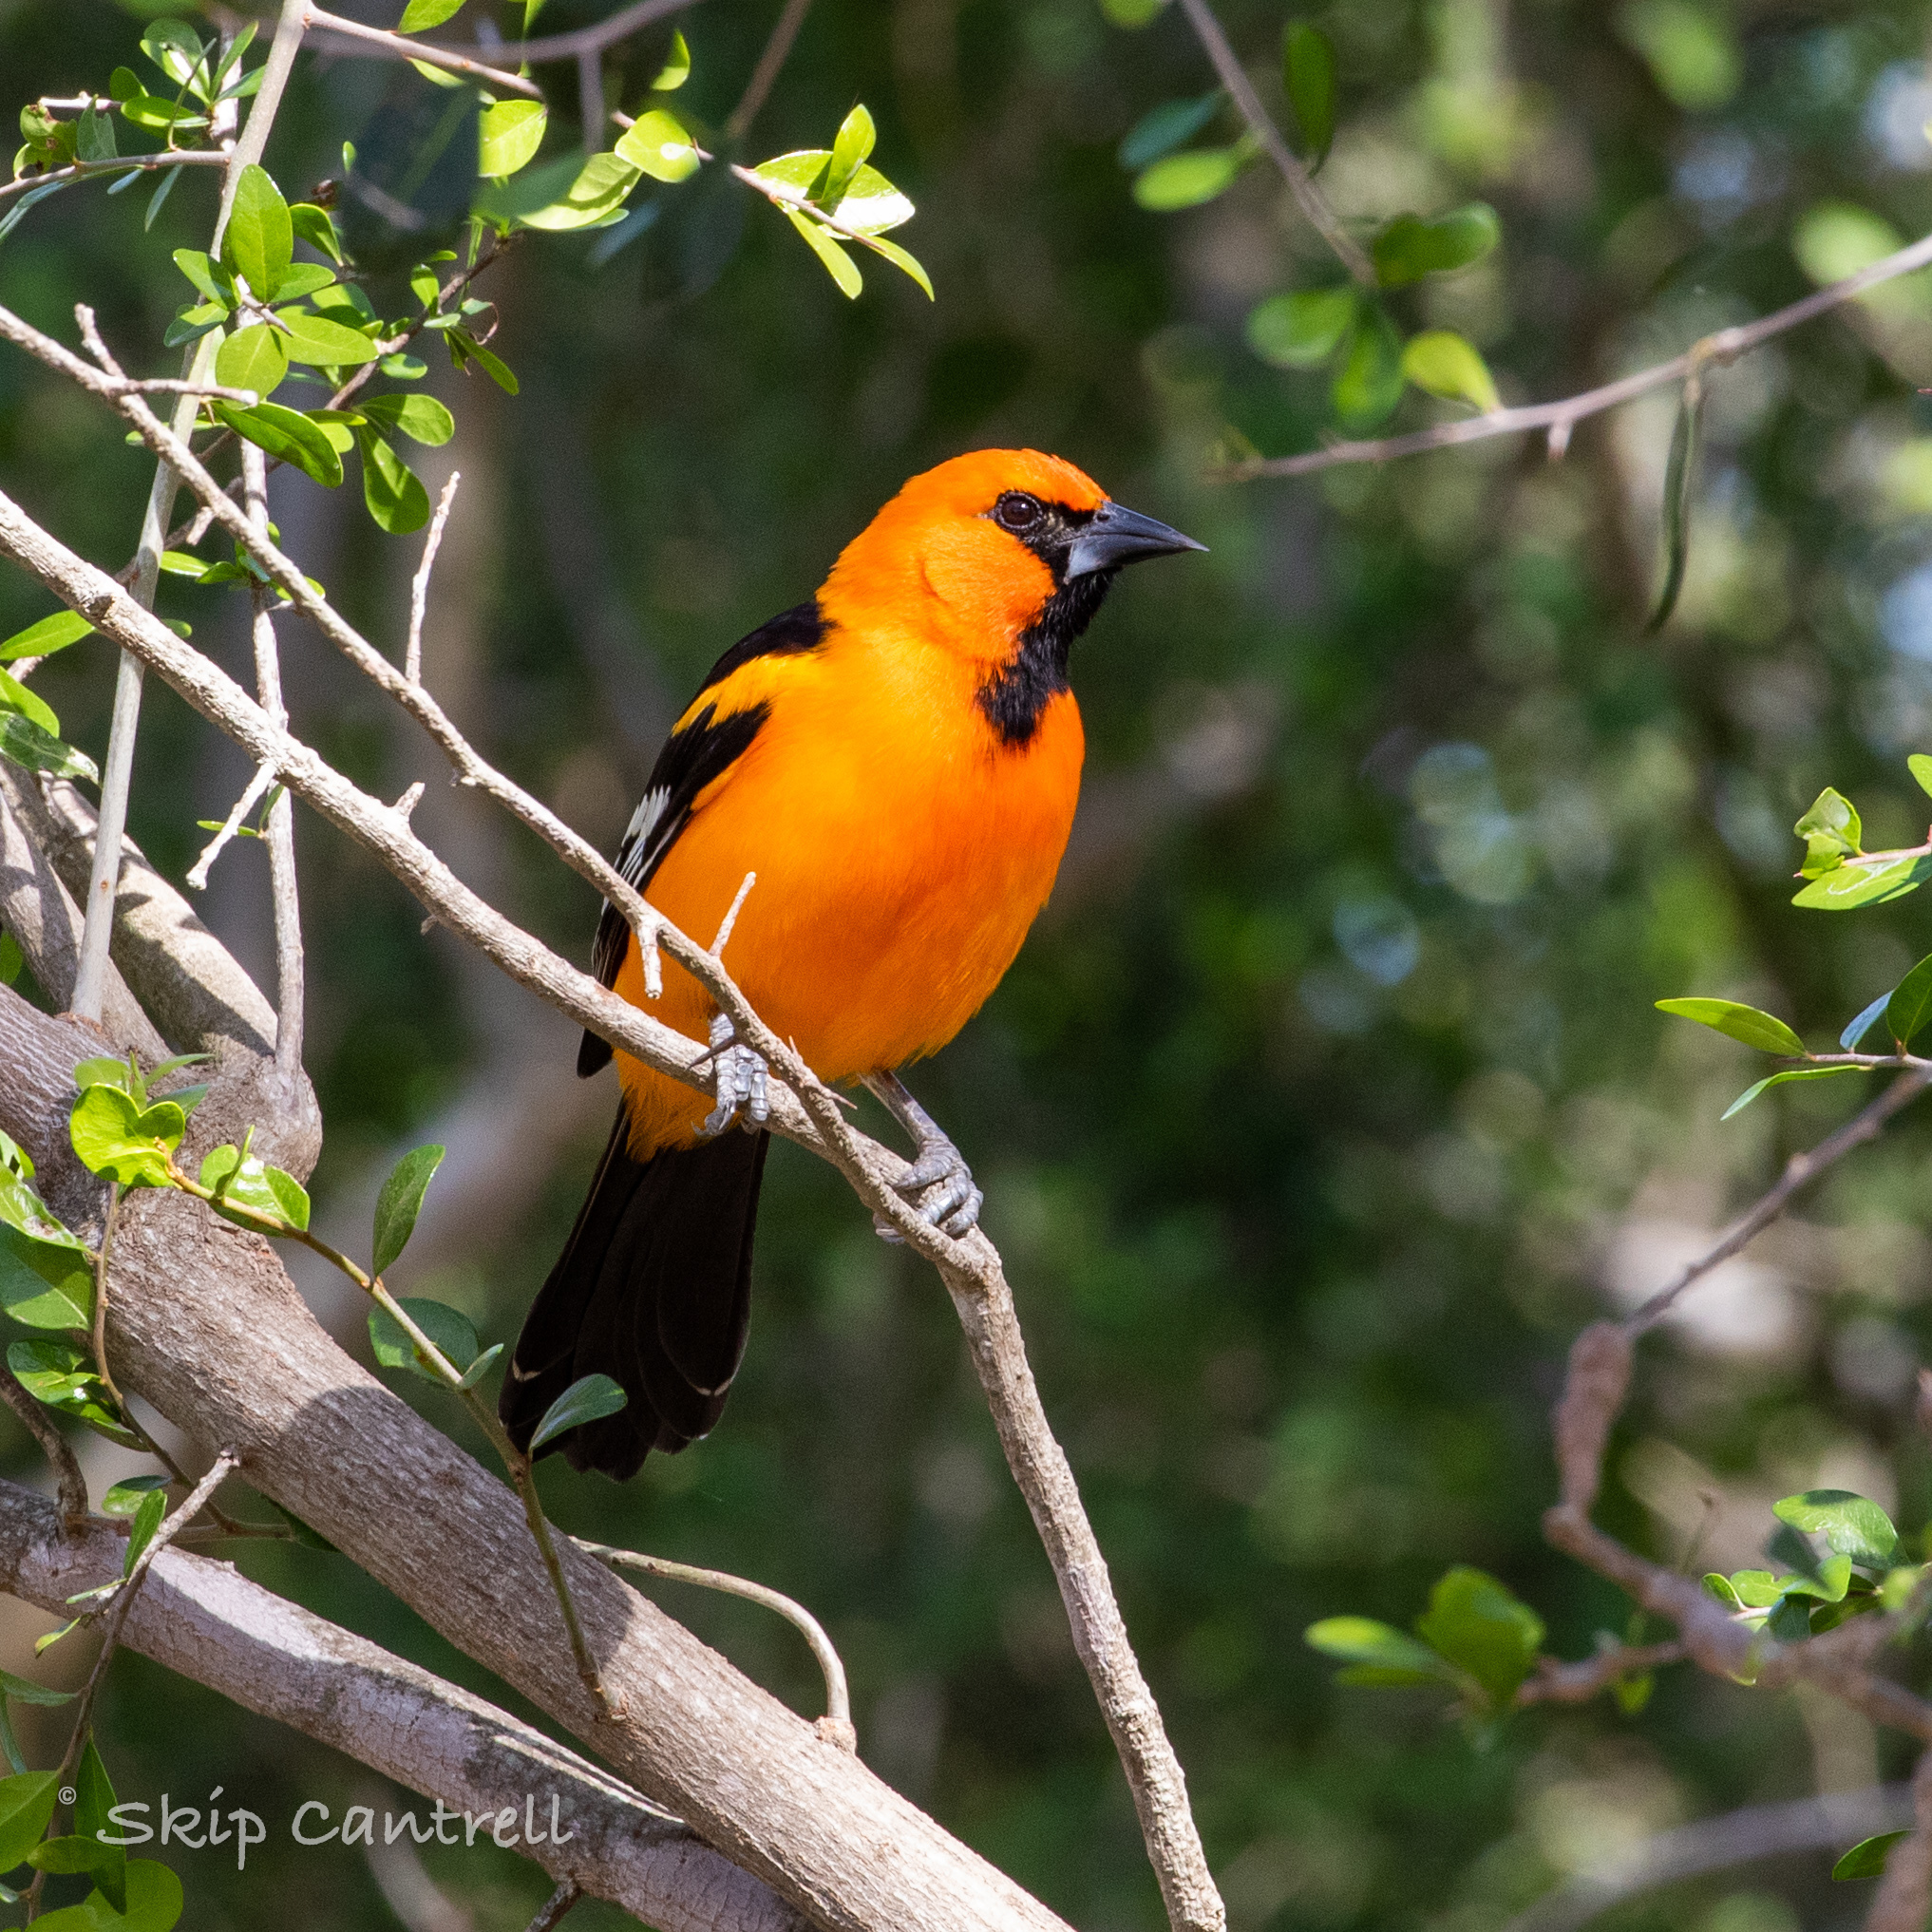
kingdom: Animalia
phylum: Chordata
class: Aves
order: Passeriformes
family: Icteridae
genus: Icterus
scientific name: Icterus gularis
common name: Altamira oriole
